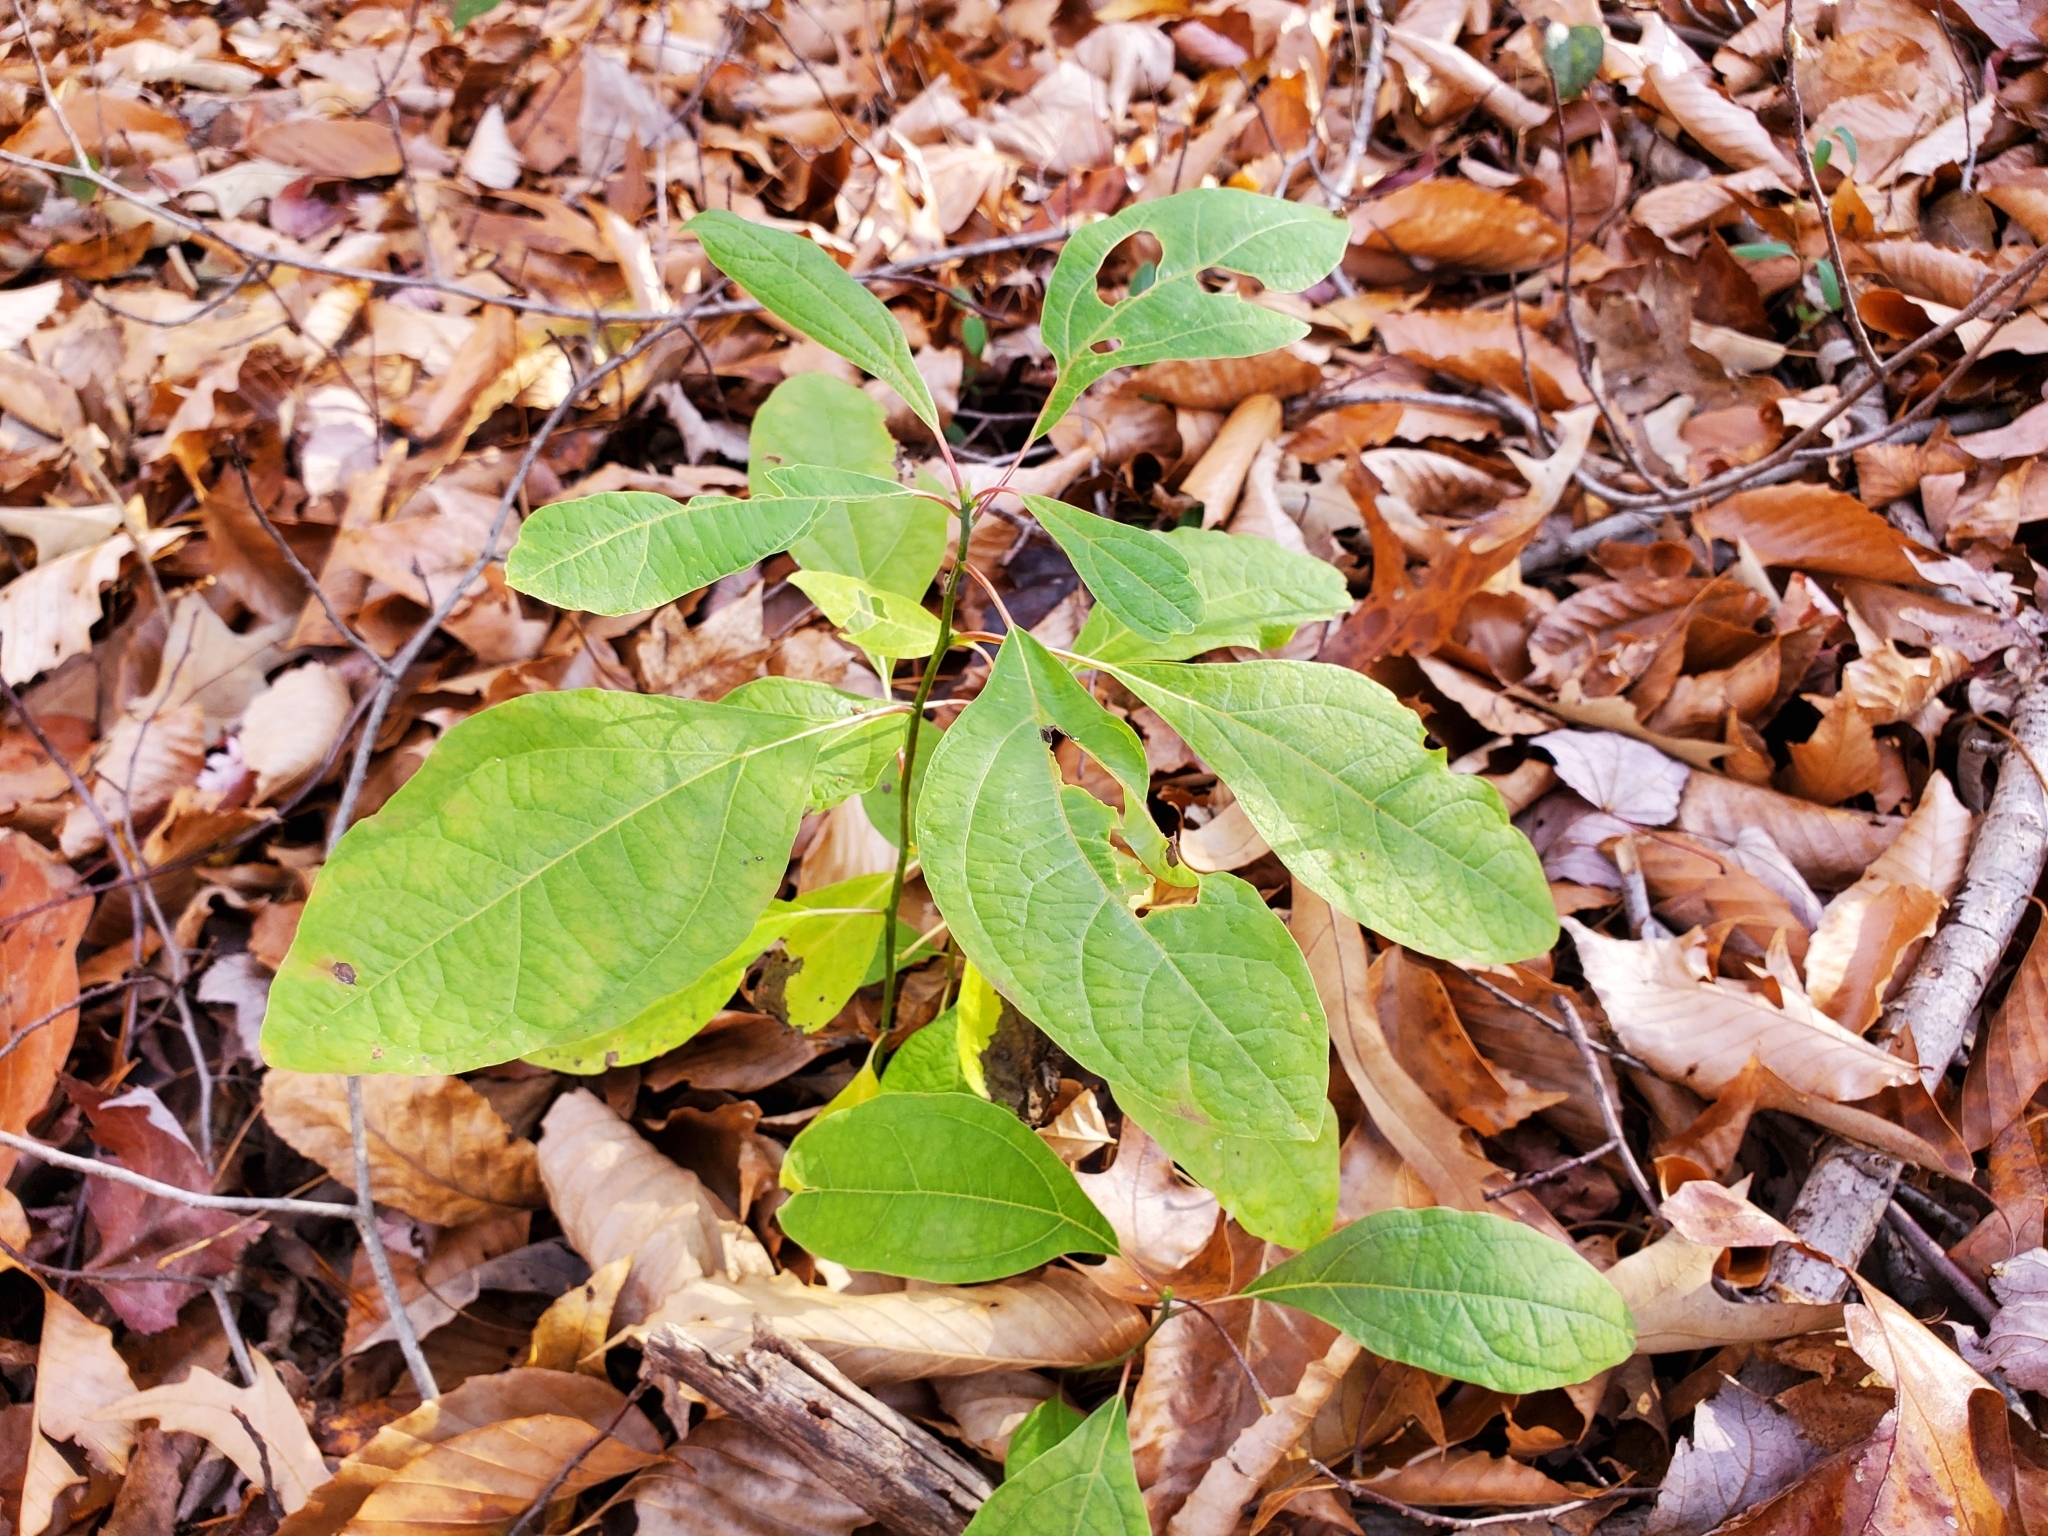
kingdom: Plantae
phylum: Tracheophyta
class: Magnoliopsida
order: Laurales
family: Lauraceae
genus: Sassafras
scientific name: Sassafras albidum
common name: Sassafras
